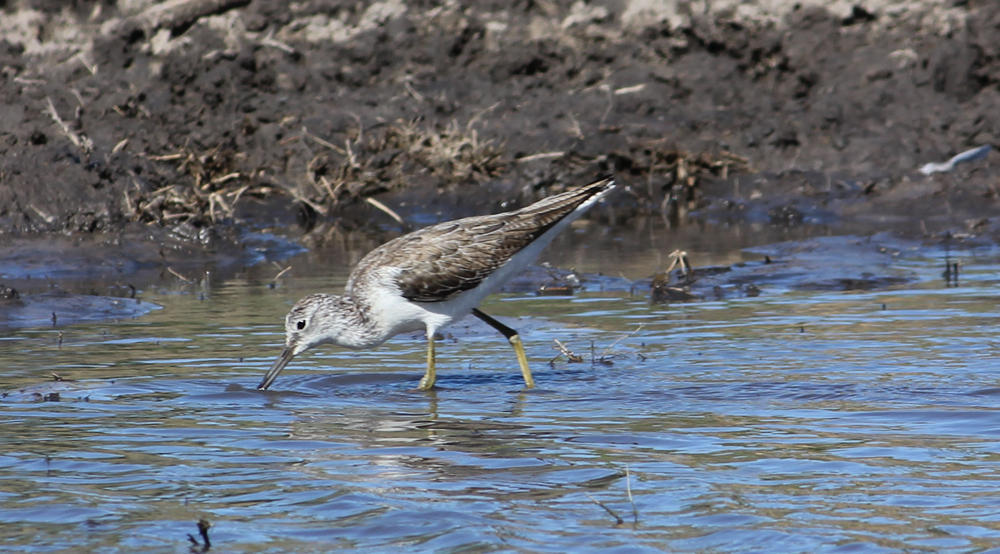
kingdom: Animalia
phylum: Chordata
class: Aves
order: Charadriiformes
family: Scolopacidae
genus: Tringa
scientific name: Tringa nebularia
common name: Common greenshank
